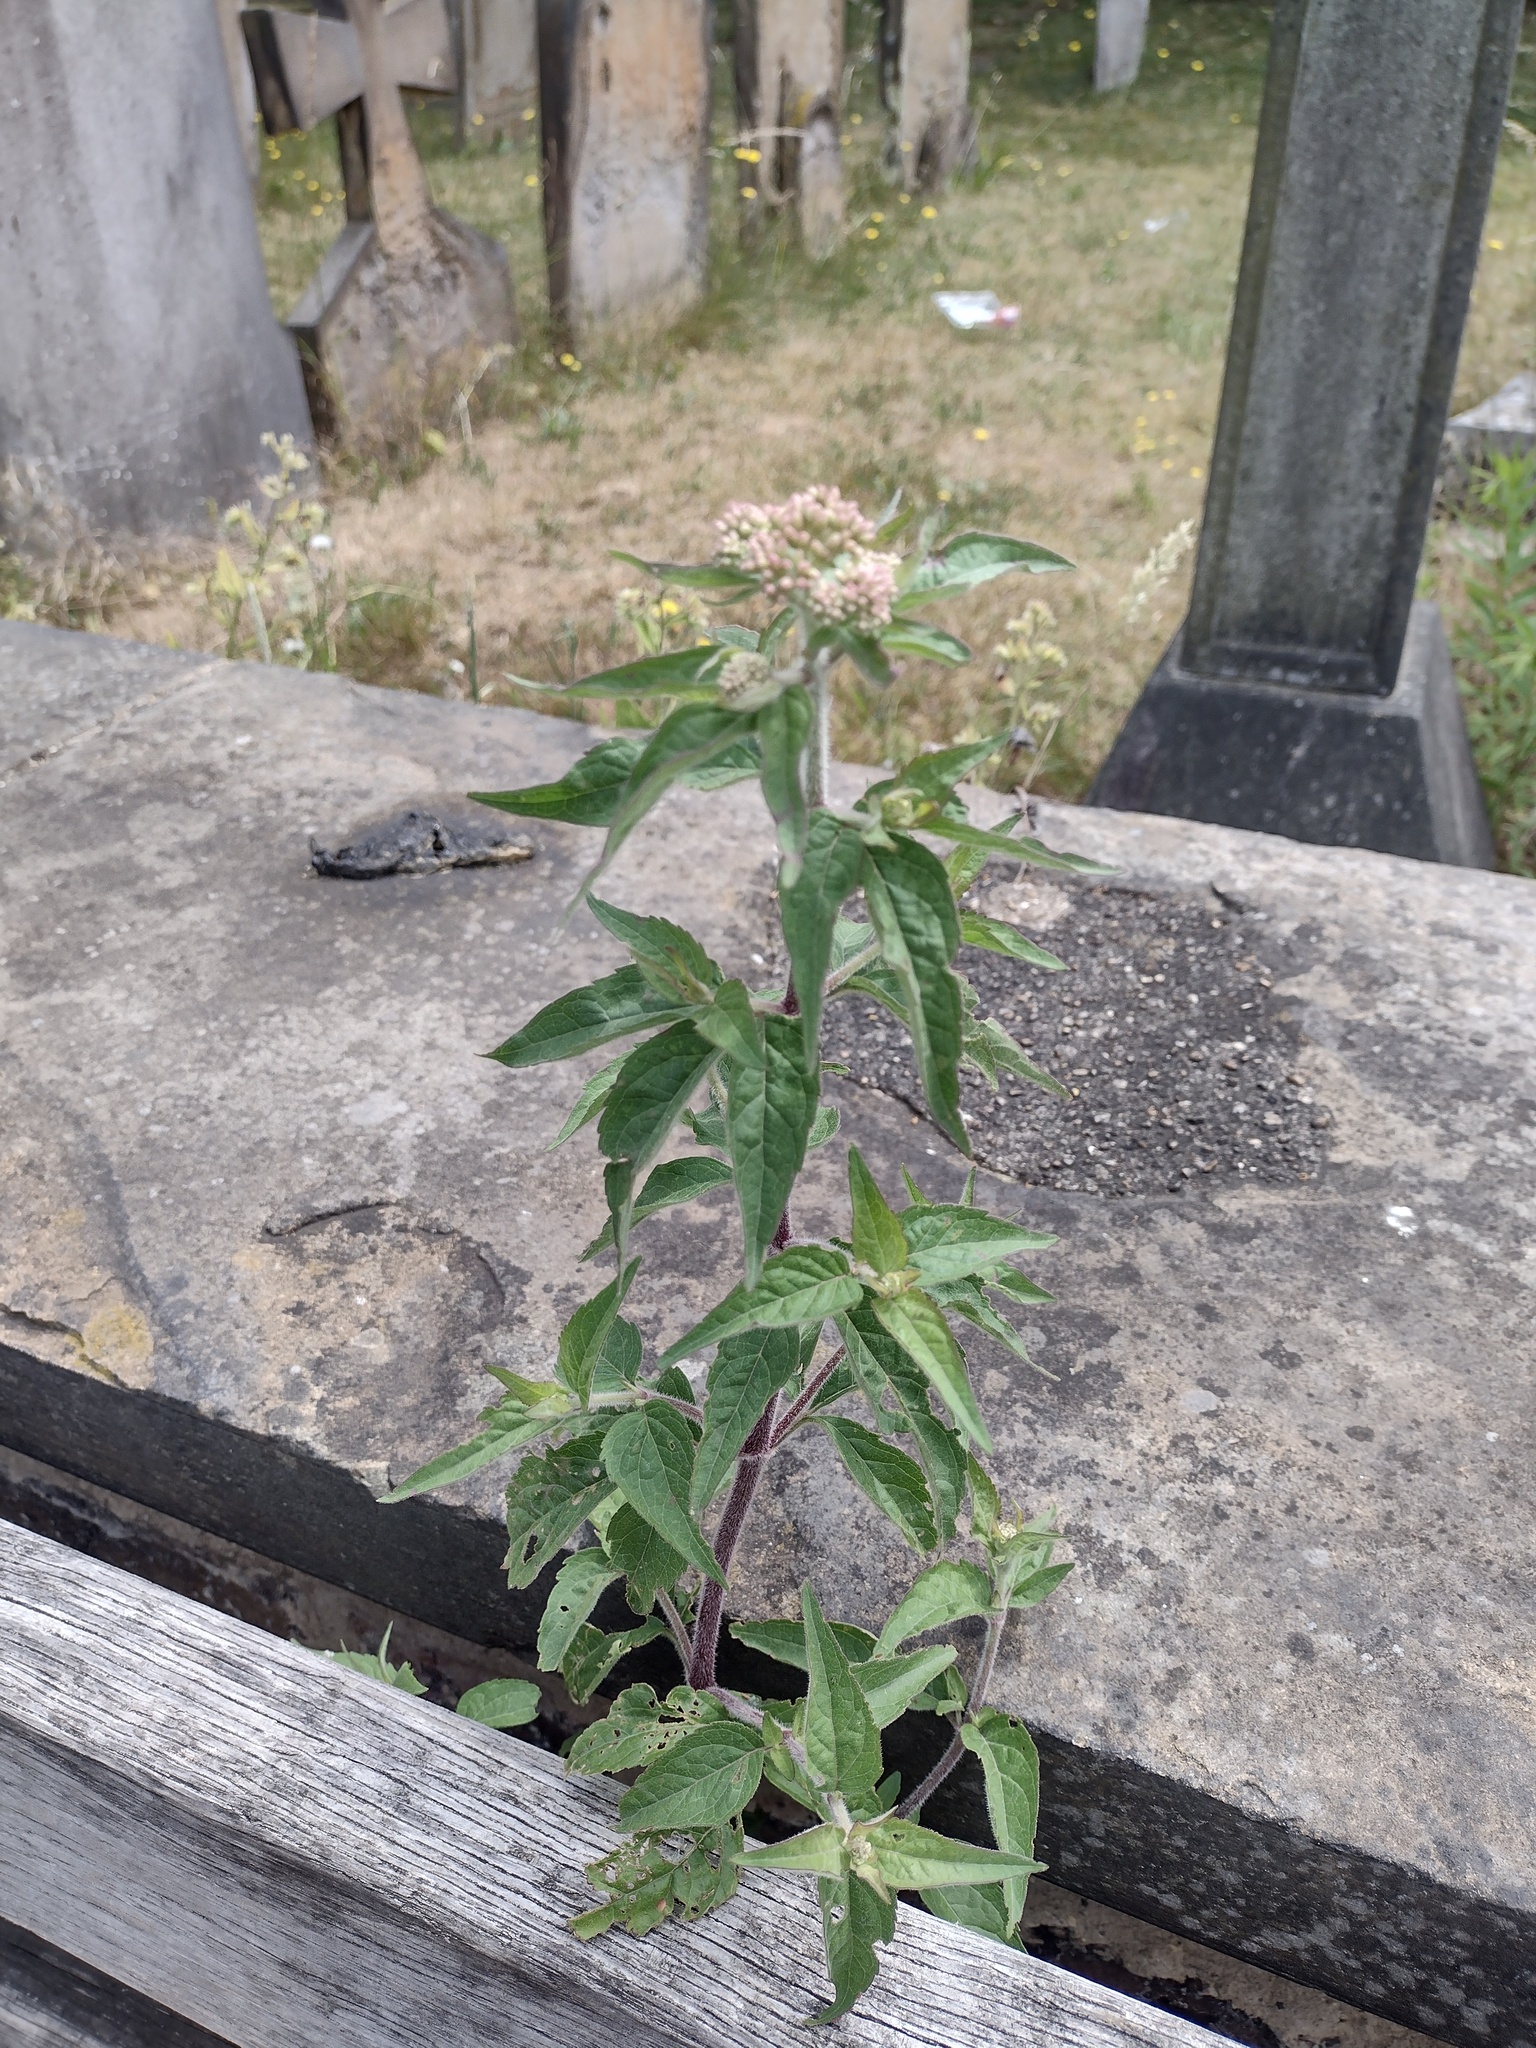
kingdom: Plantae
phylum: Tracheophyta
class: Magnoliopsida
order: Asterales
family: Asteraceae
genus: Eupatorium
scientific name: Eupatorium cannabinum
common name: Hemp-agrimony
